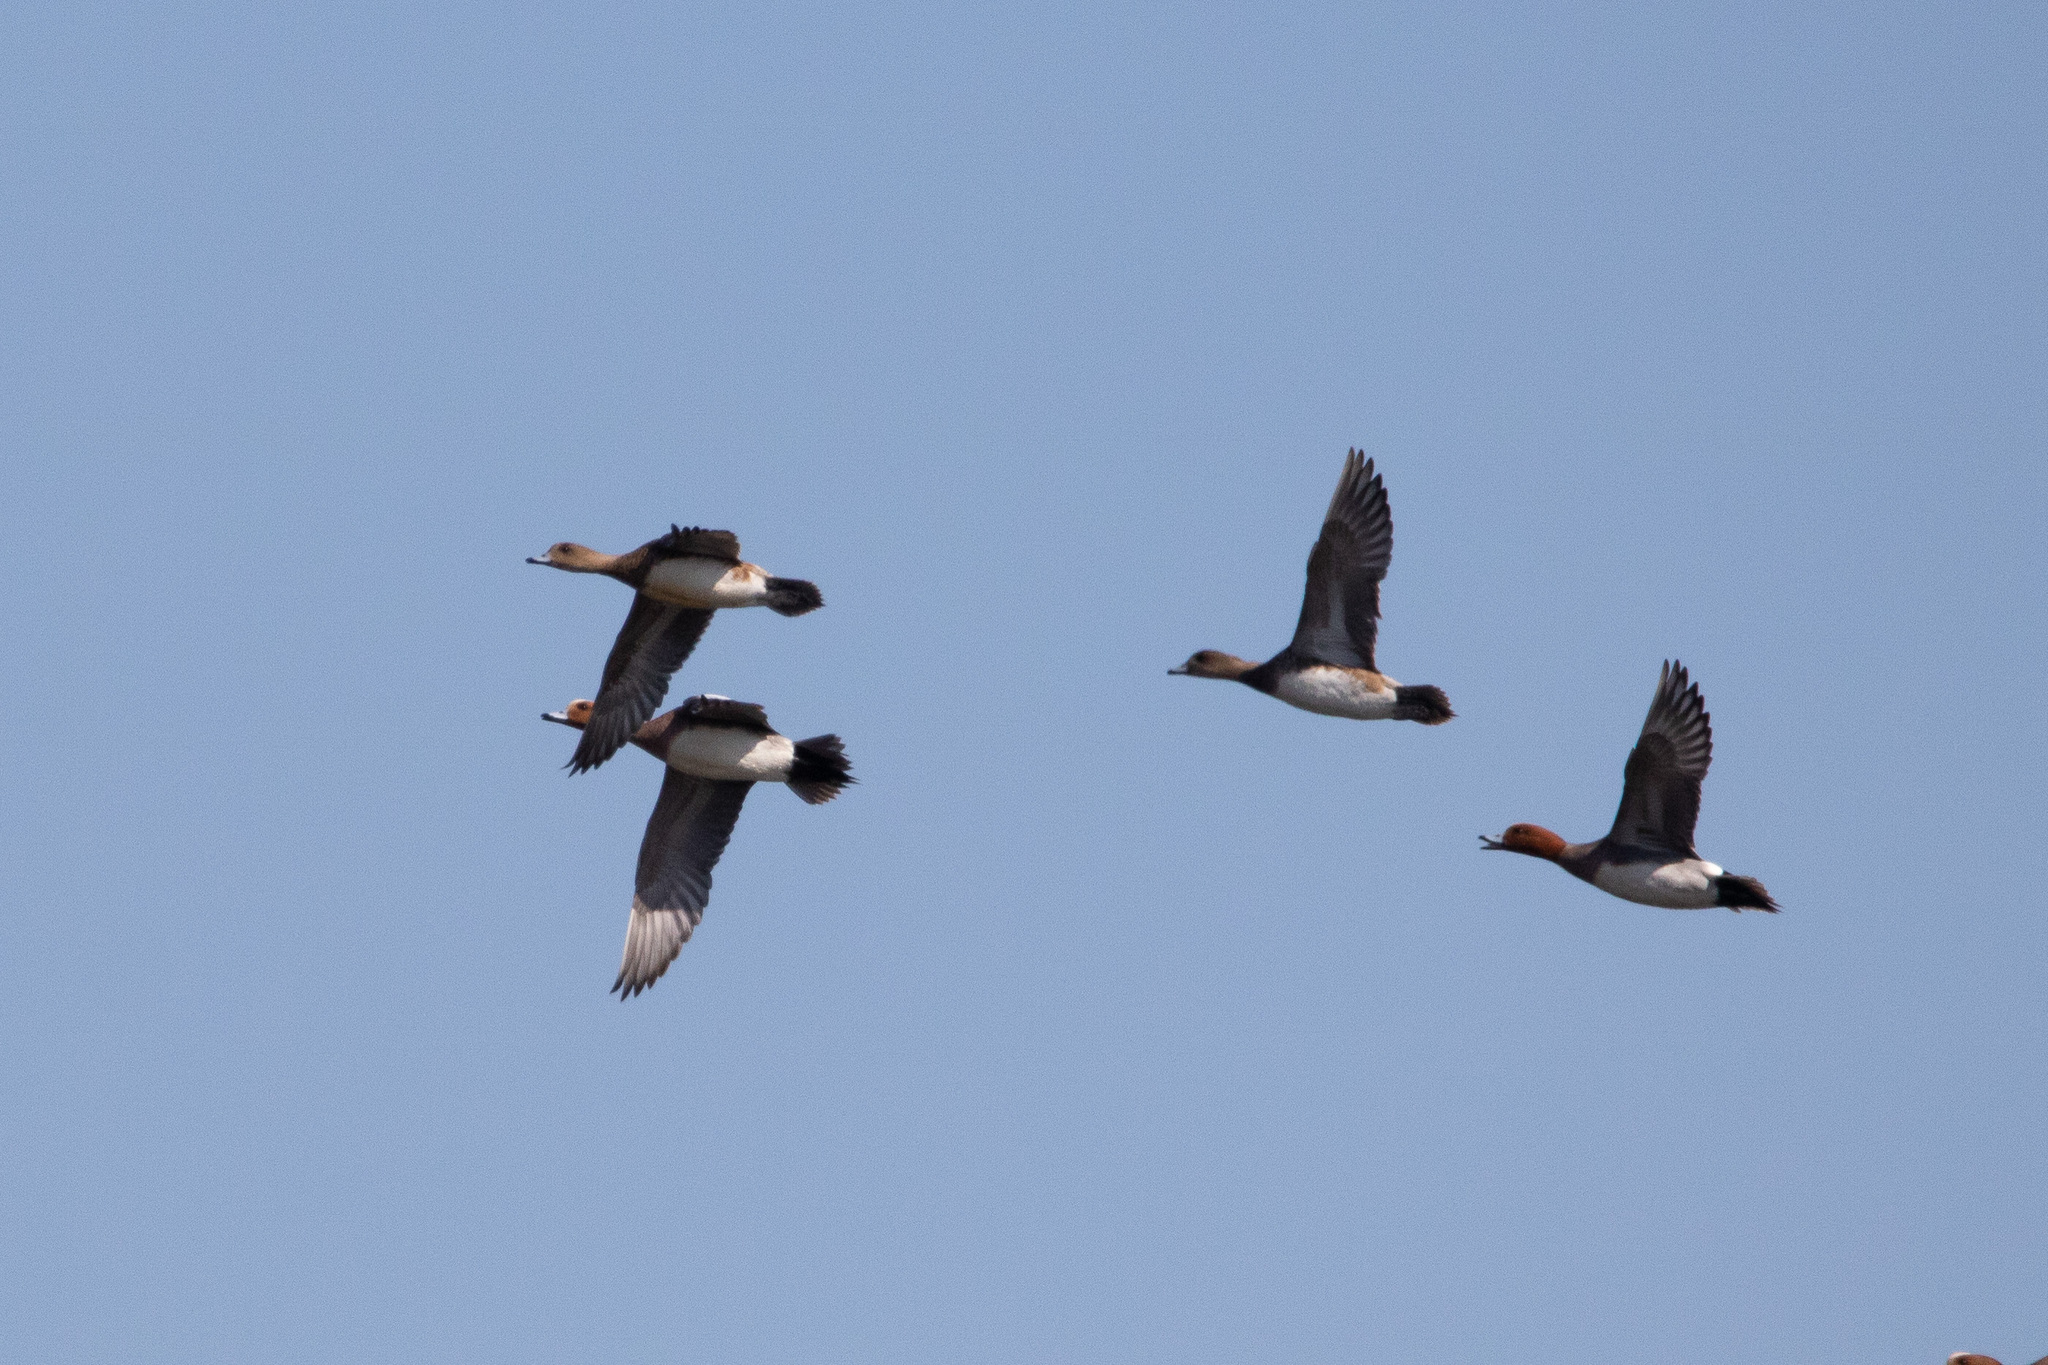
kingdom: Animalia
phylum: Chordata
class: Aves
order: Anseriformes
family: Anatidae
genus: Mareca
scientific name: Mareca penelope
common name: Eurasian wigeon
